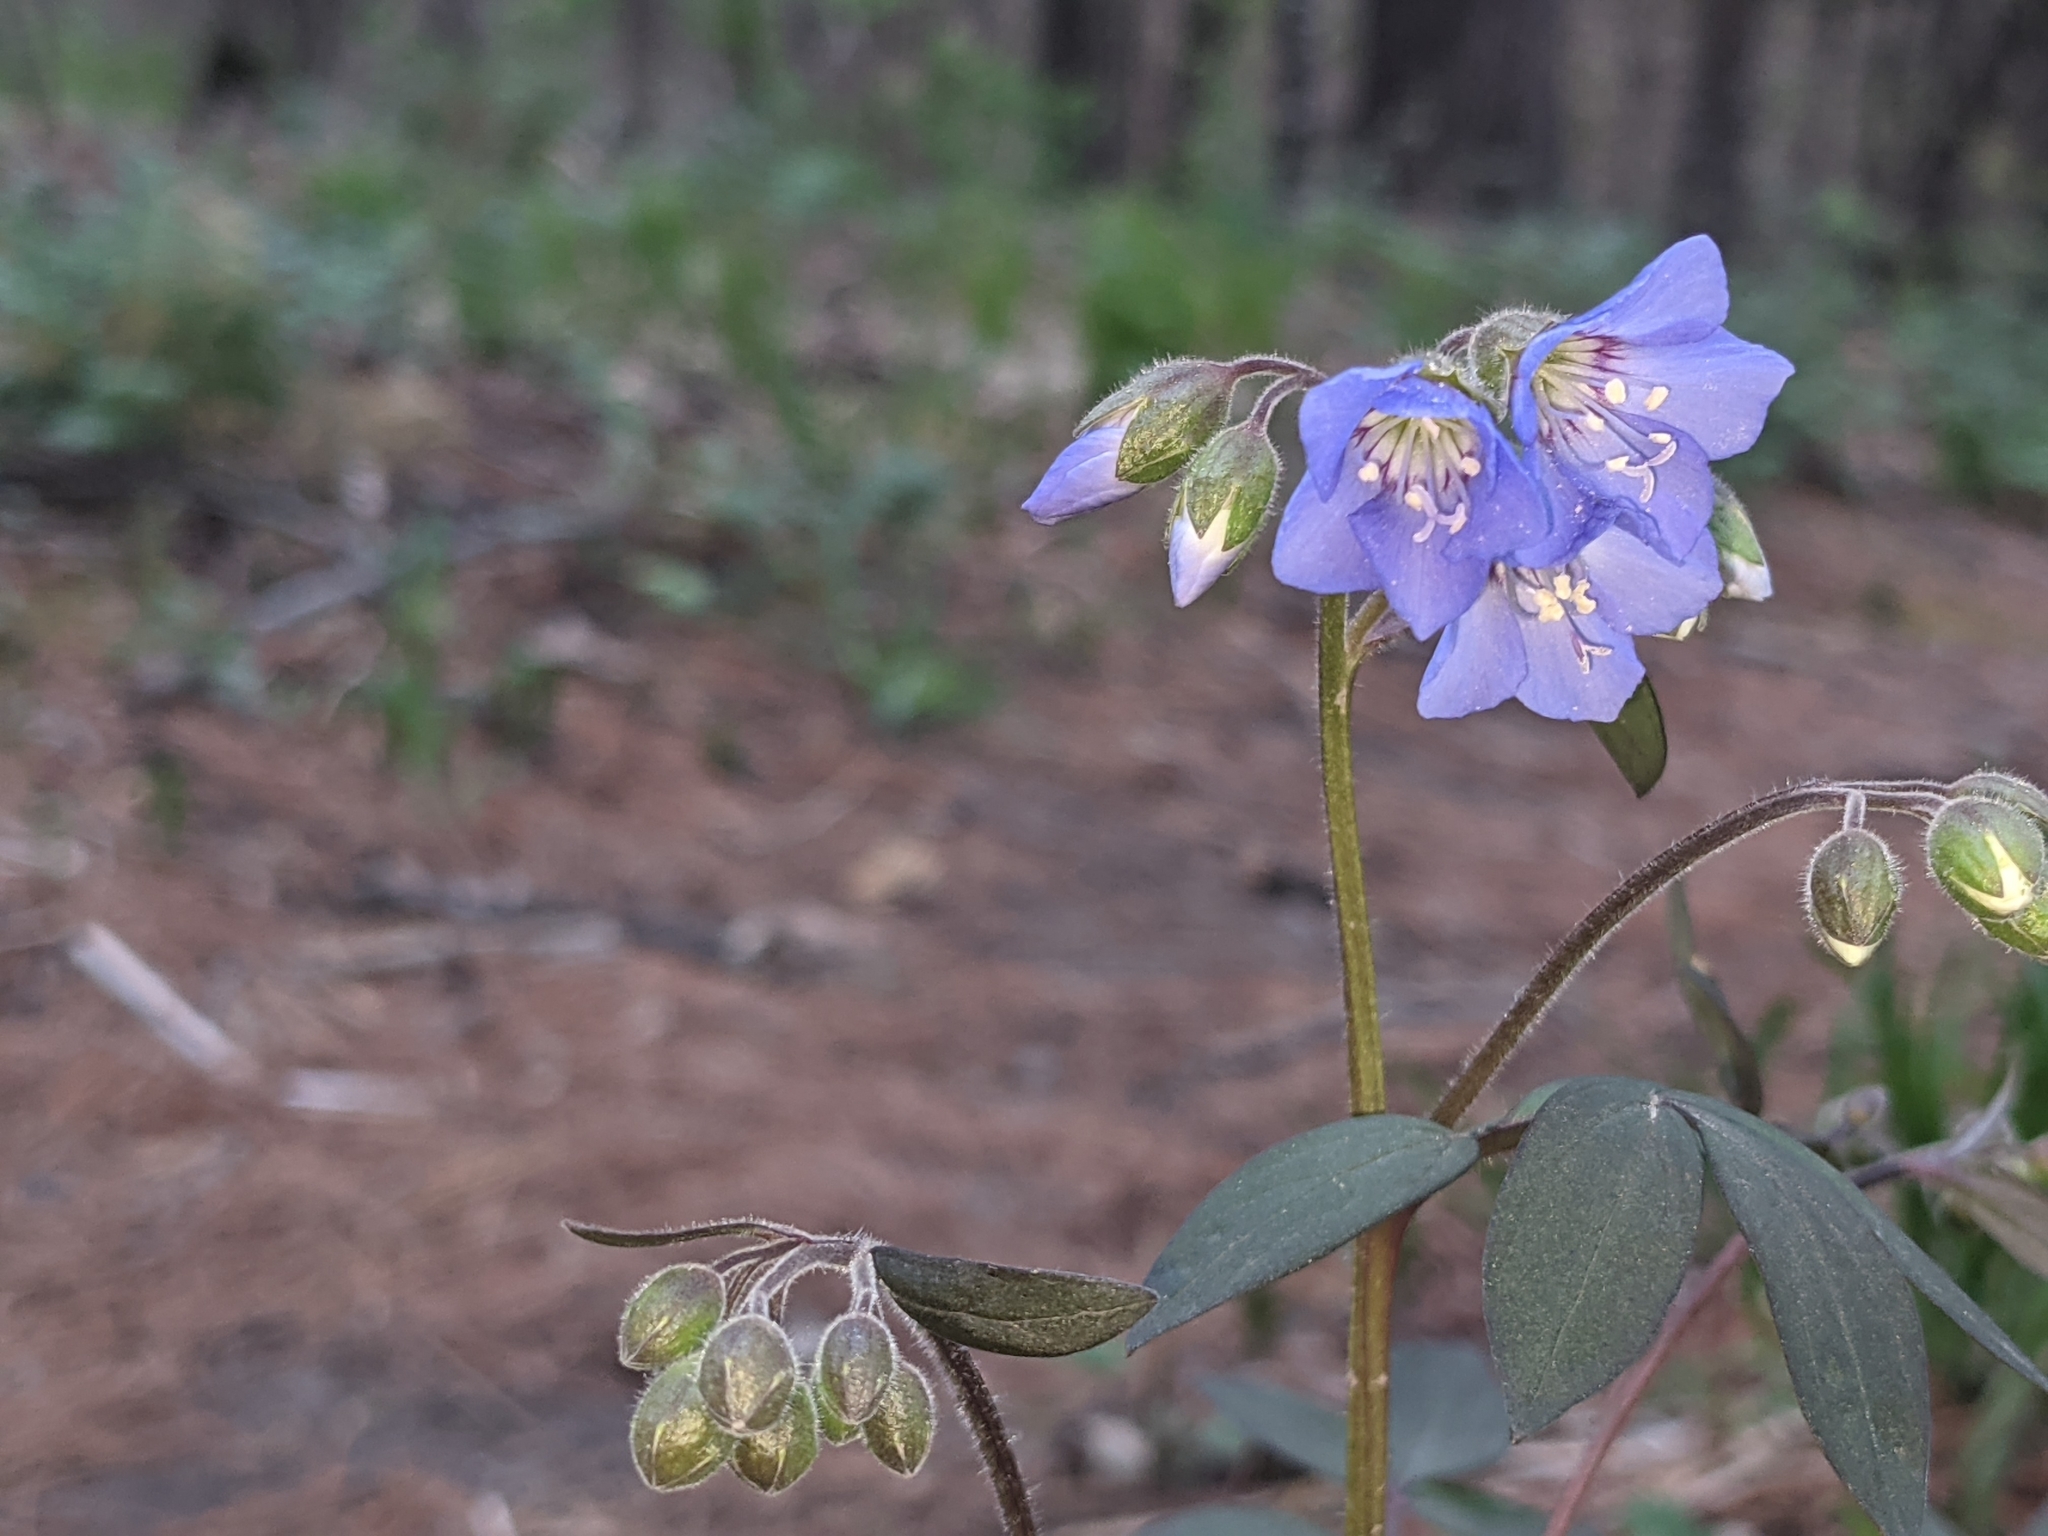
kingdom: Plantae
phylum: Tracheophyta
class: Magnoliopsida
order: Ericales
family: Polemoniaceae
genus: Polemonium
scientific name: Polemonium reptans
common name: Creeping jacob's-ladder
